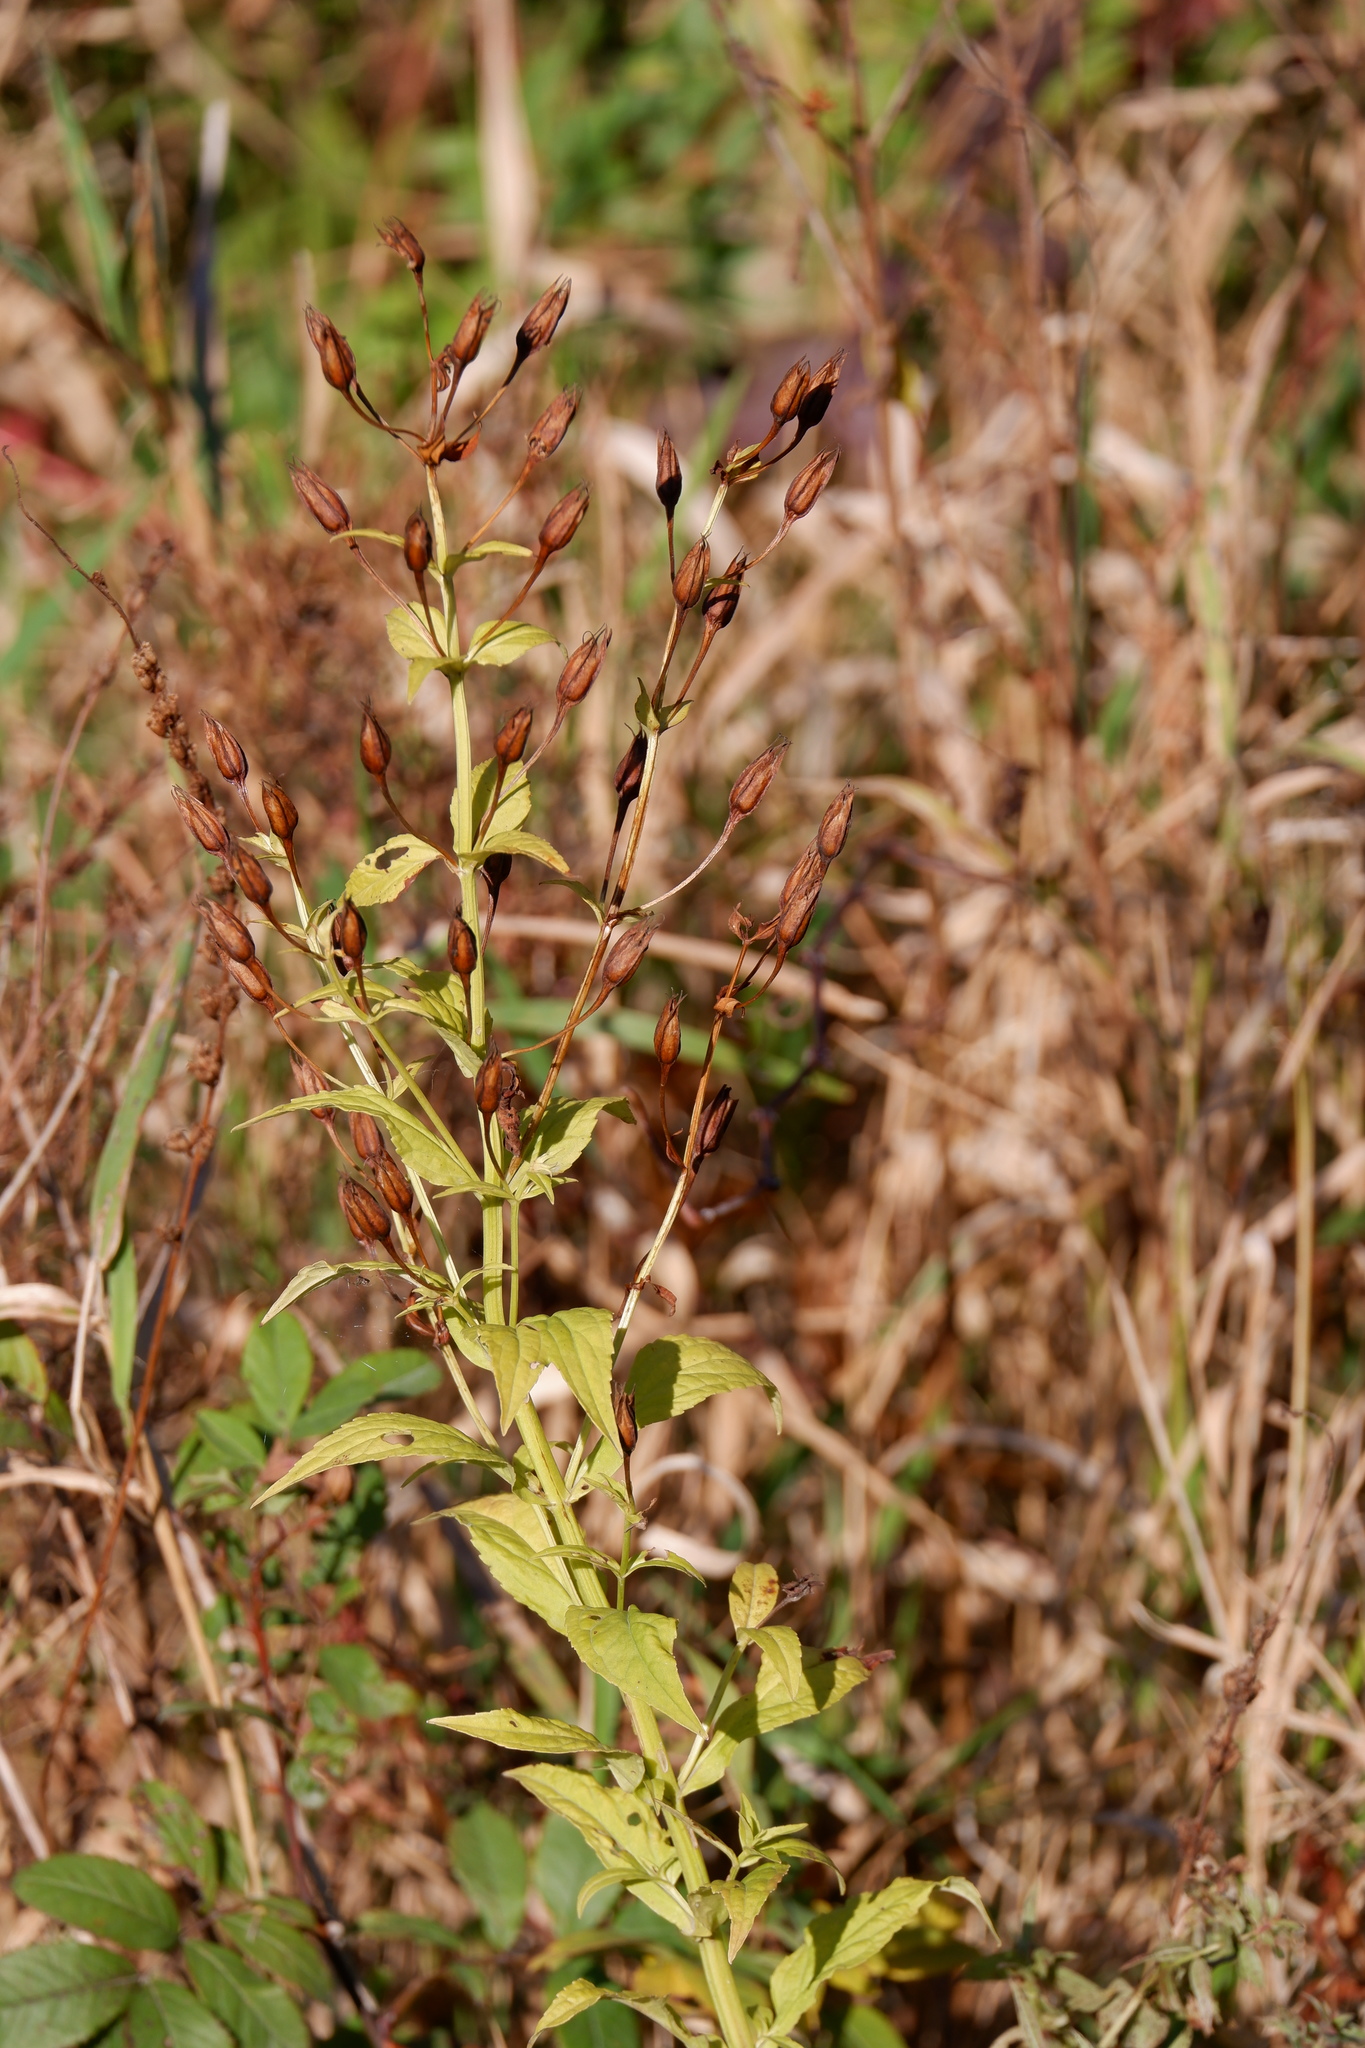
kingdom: Plantae
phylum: Tracheophyta
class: Magnoliopsida
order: Lamiales
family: Phrymaceae
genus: Mimulus
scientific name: Mimulus ringens
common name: Allegheny monkeyflower
